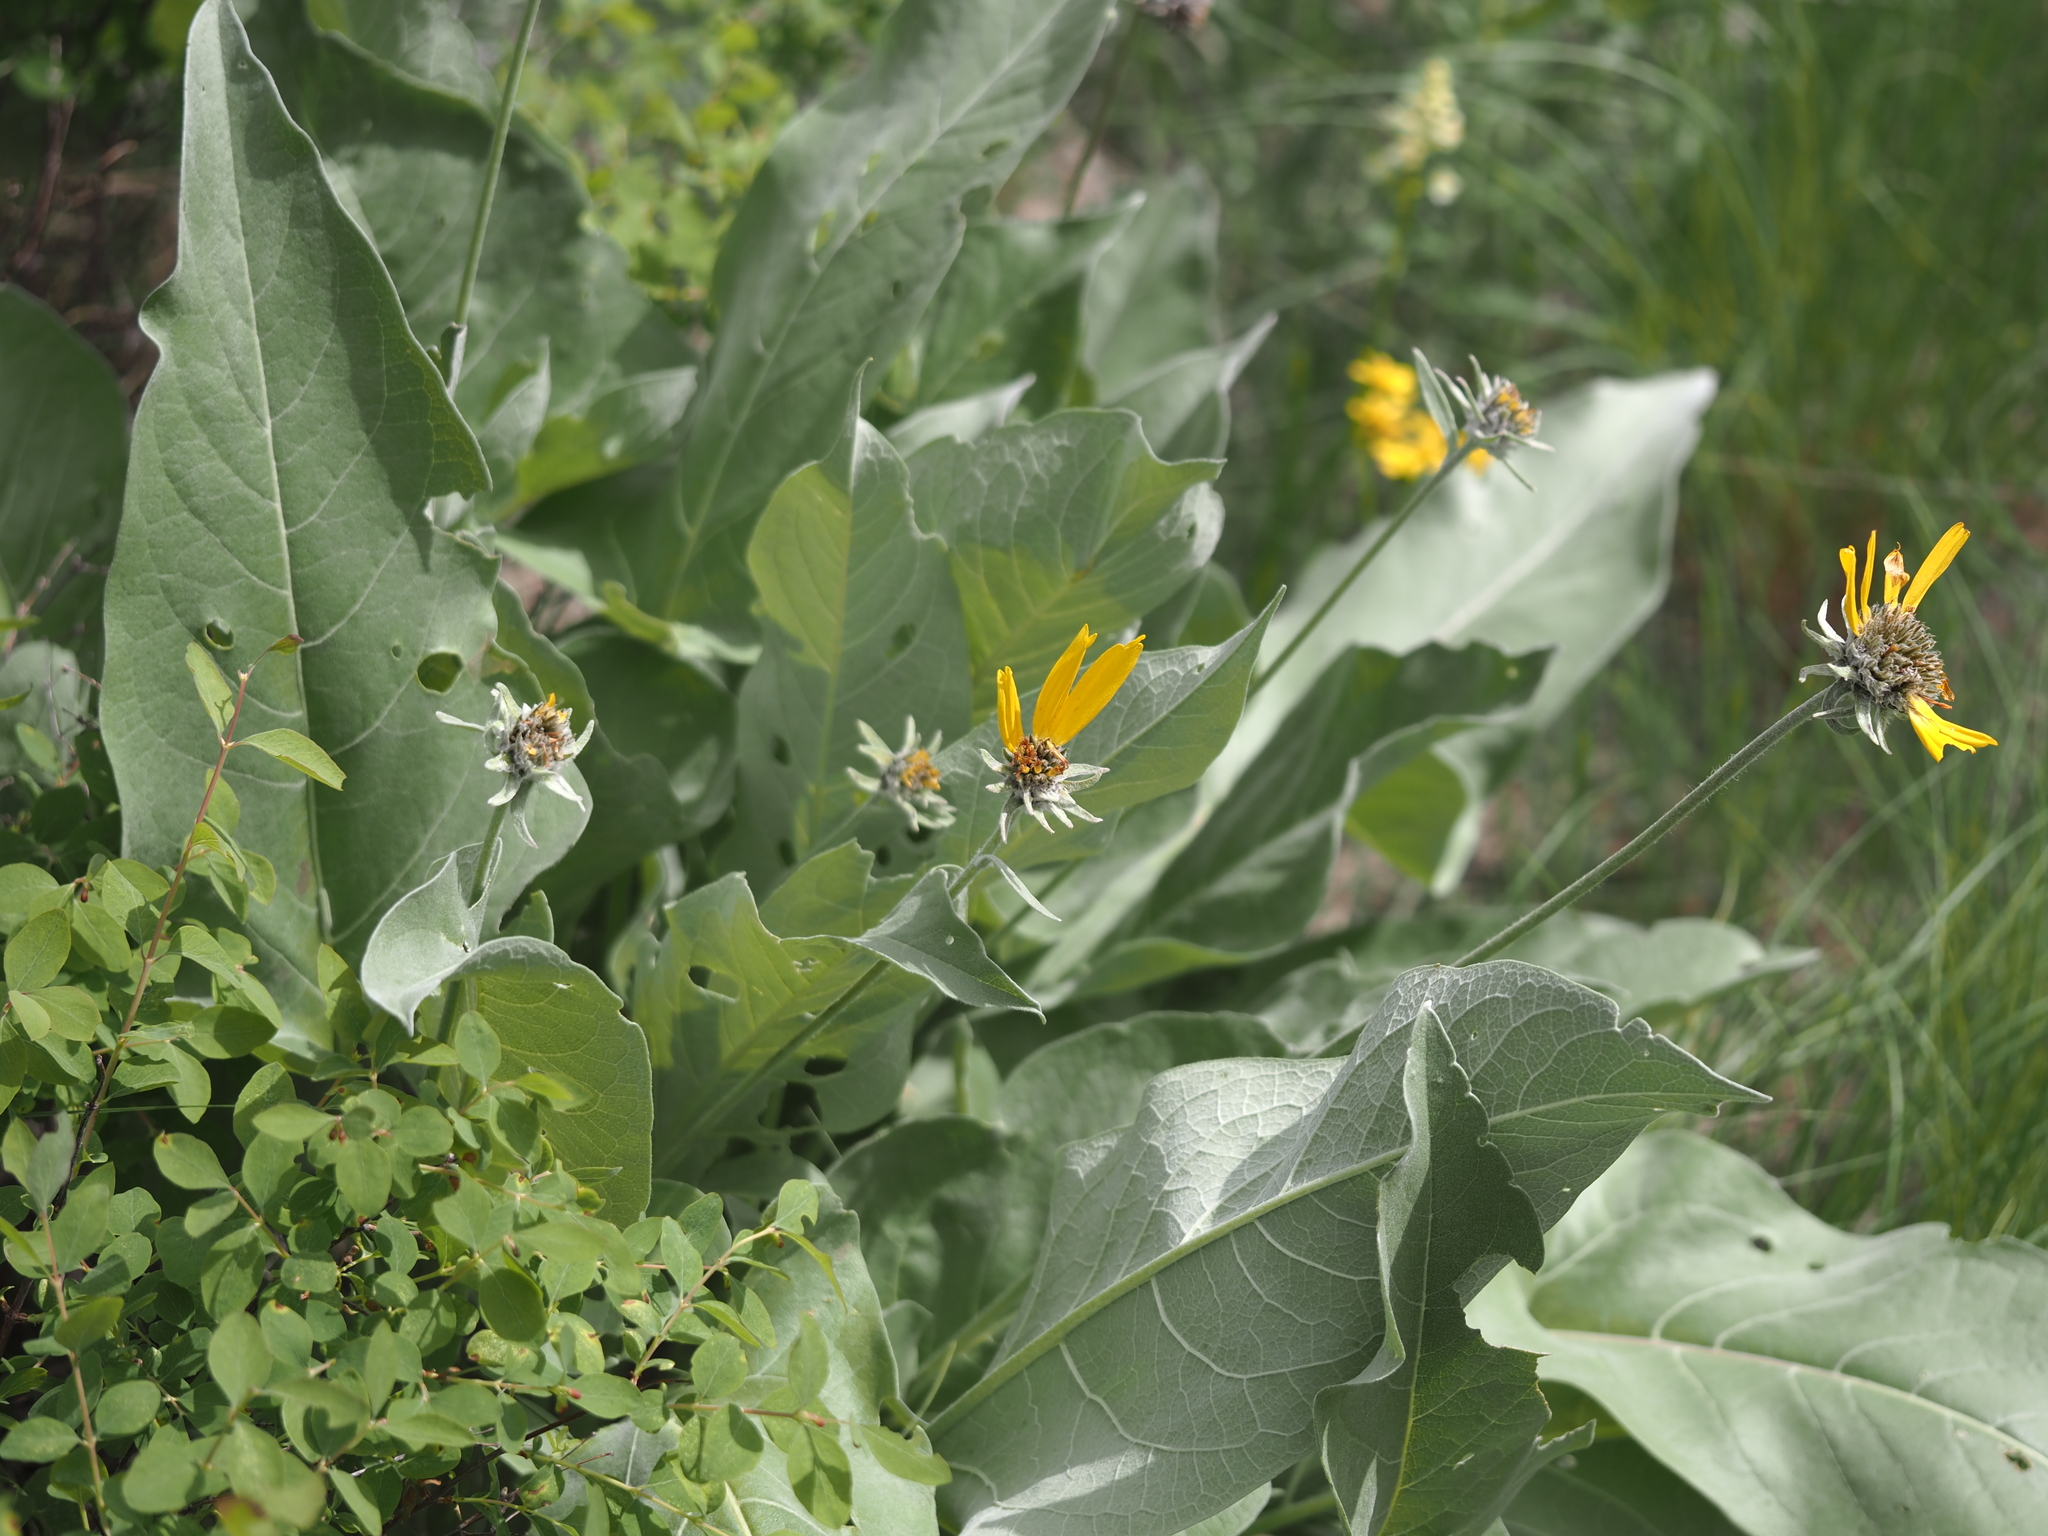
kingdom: Plantae
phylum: Tracheophyta
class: Magnoliopsida
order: Asterales
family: Asteraceae
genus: Wyethia
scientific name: Wyethia sagittata
